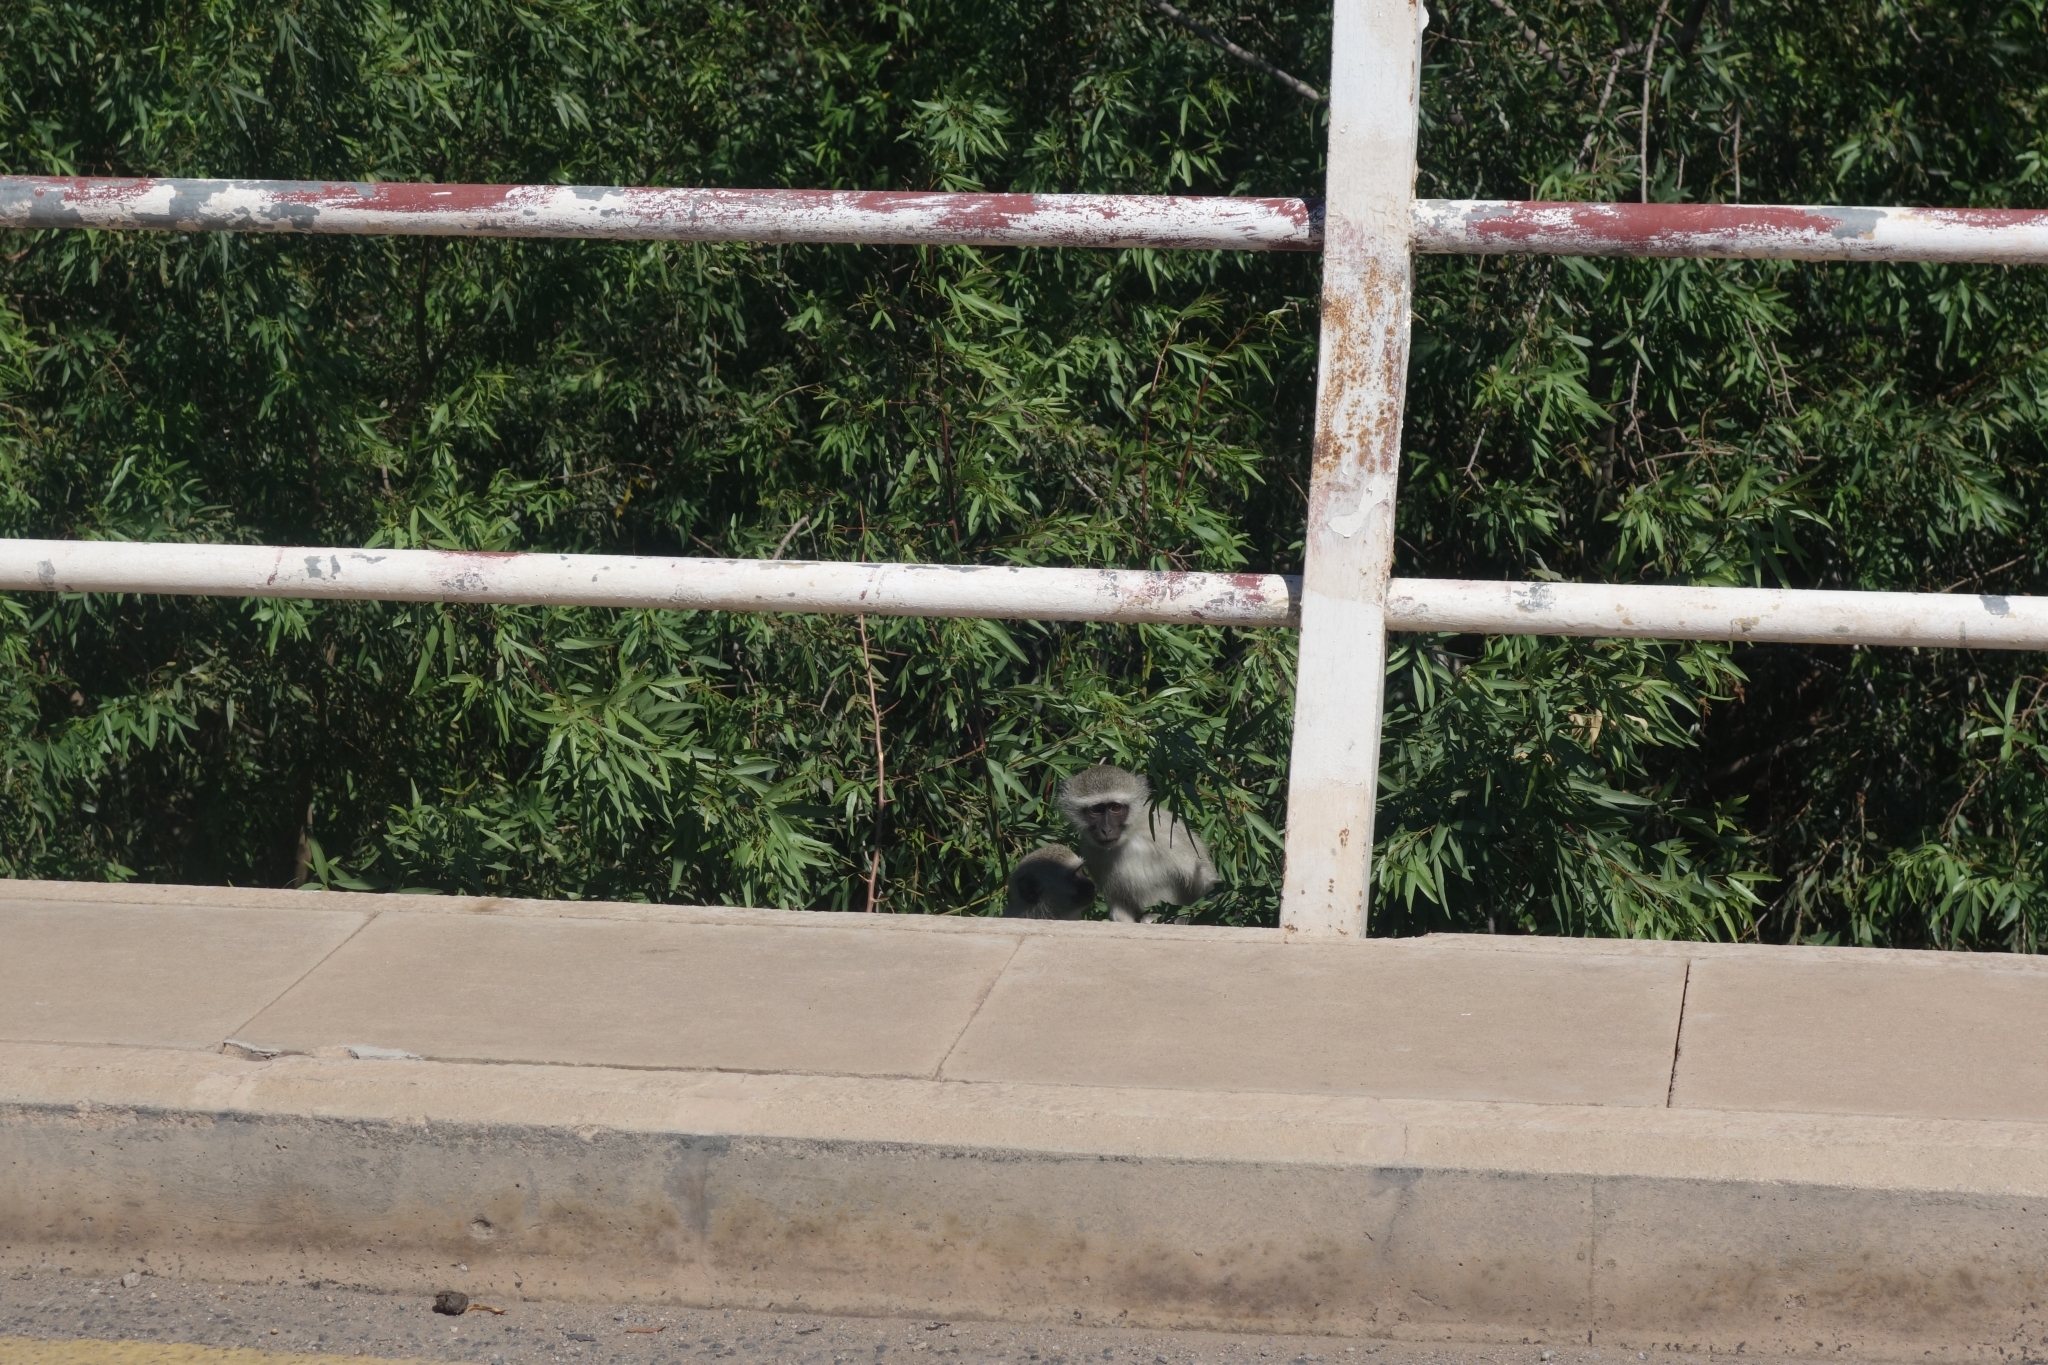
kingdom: Animalia
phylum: Chordata
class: Mammalia
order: Primates
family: Cercopithecidae
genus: Chlorocebus
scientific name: Chlorocebus pygerythrus
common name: Vervet monkey
